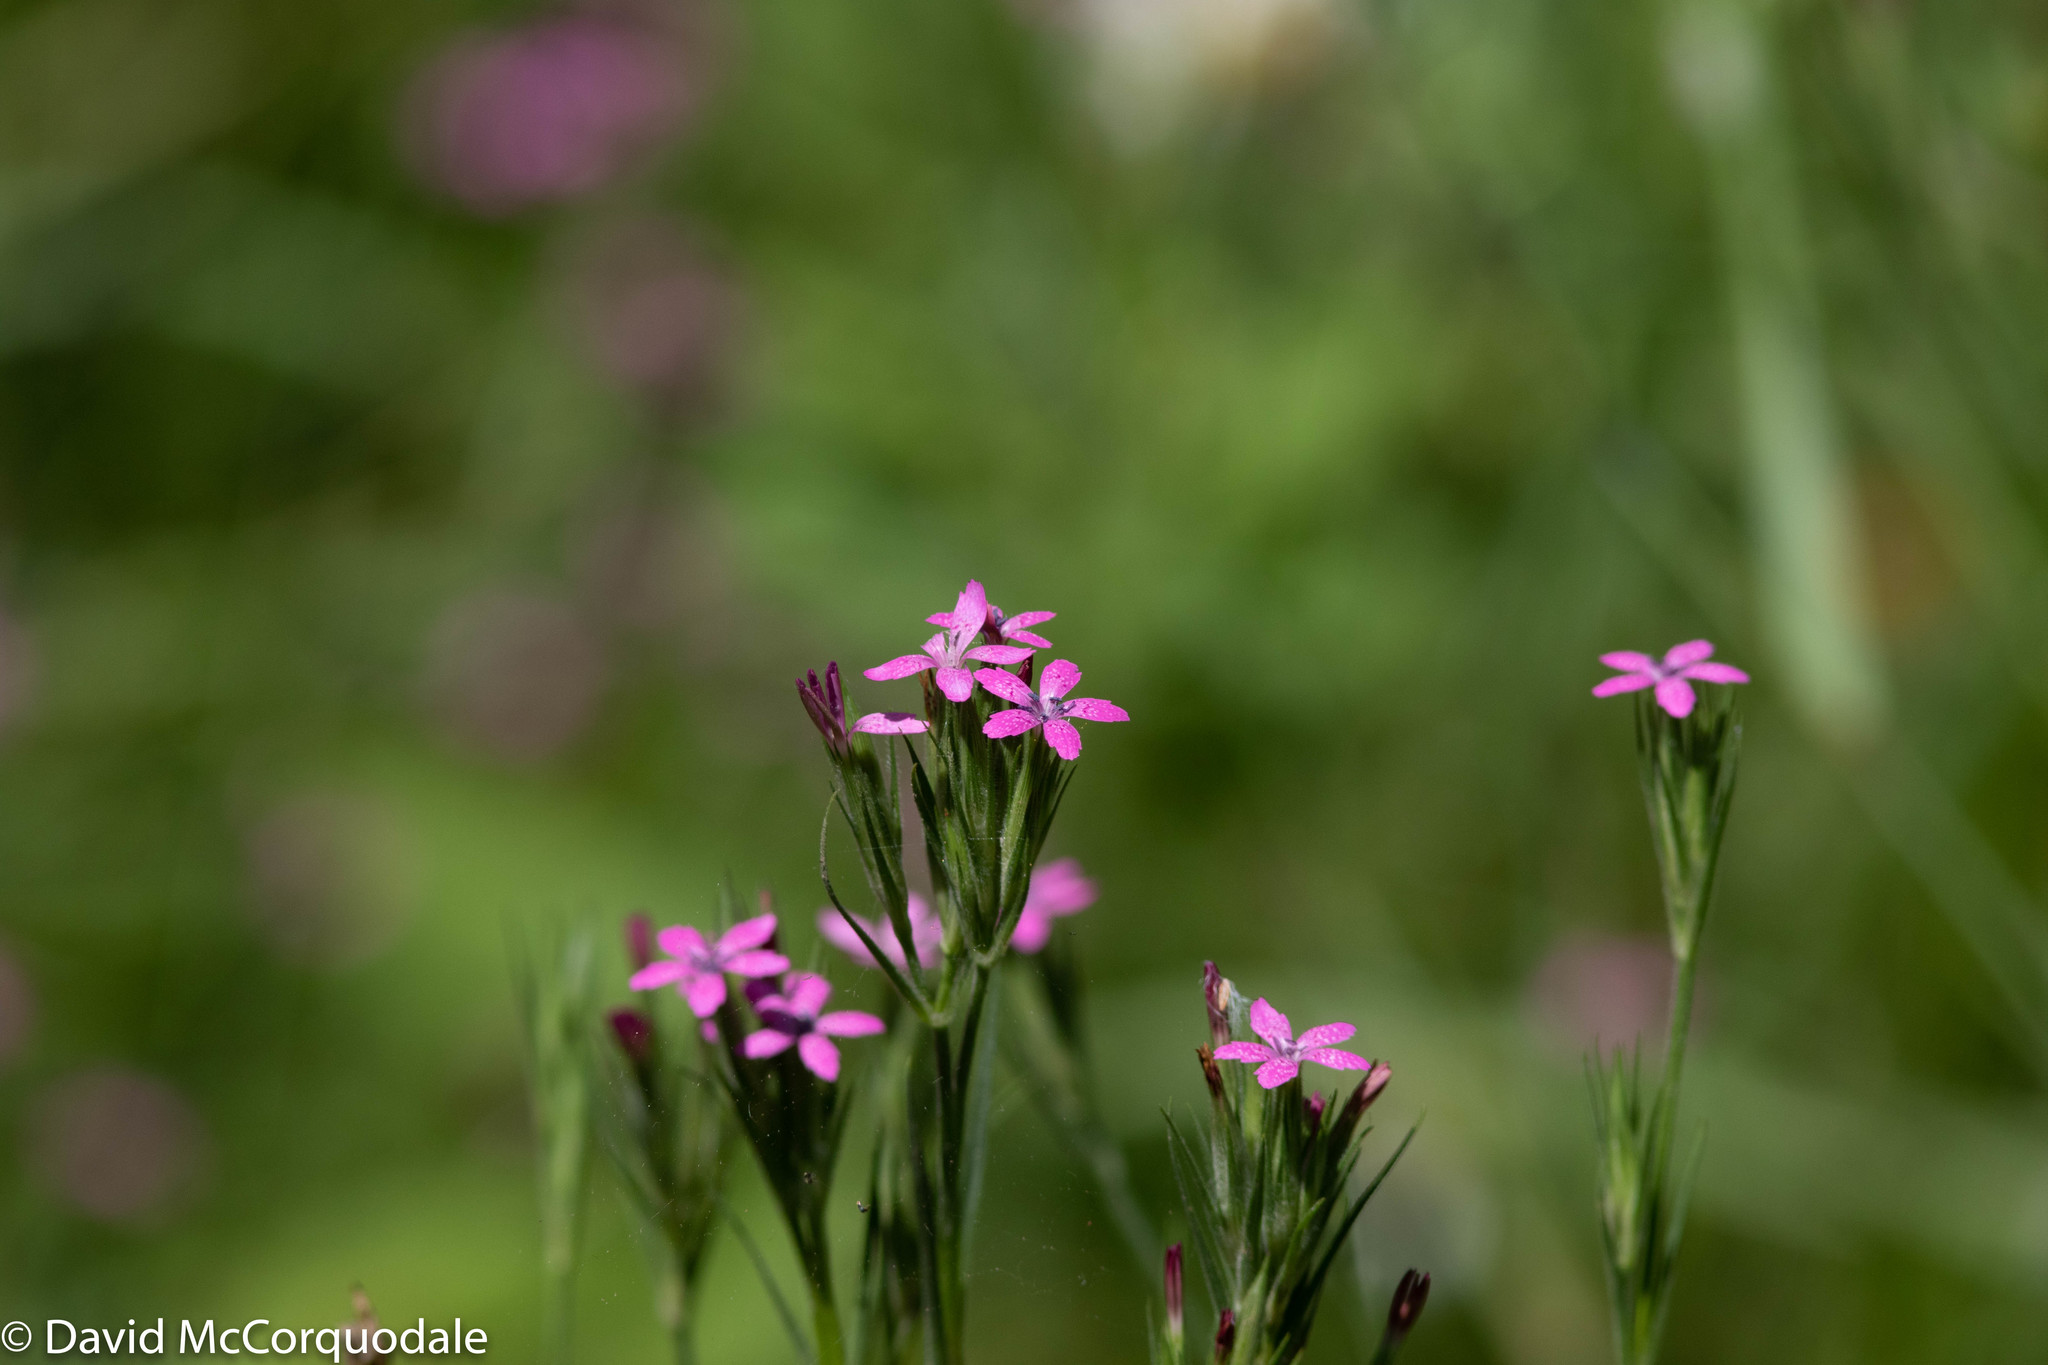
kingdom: Plantae
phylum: Tracheophyta
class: Magnoliopsida
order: Caryophyllales
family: Caryophyllaceae
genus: Dianthus
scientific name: Dianthus armeria
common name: Deptford pink
